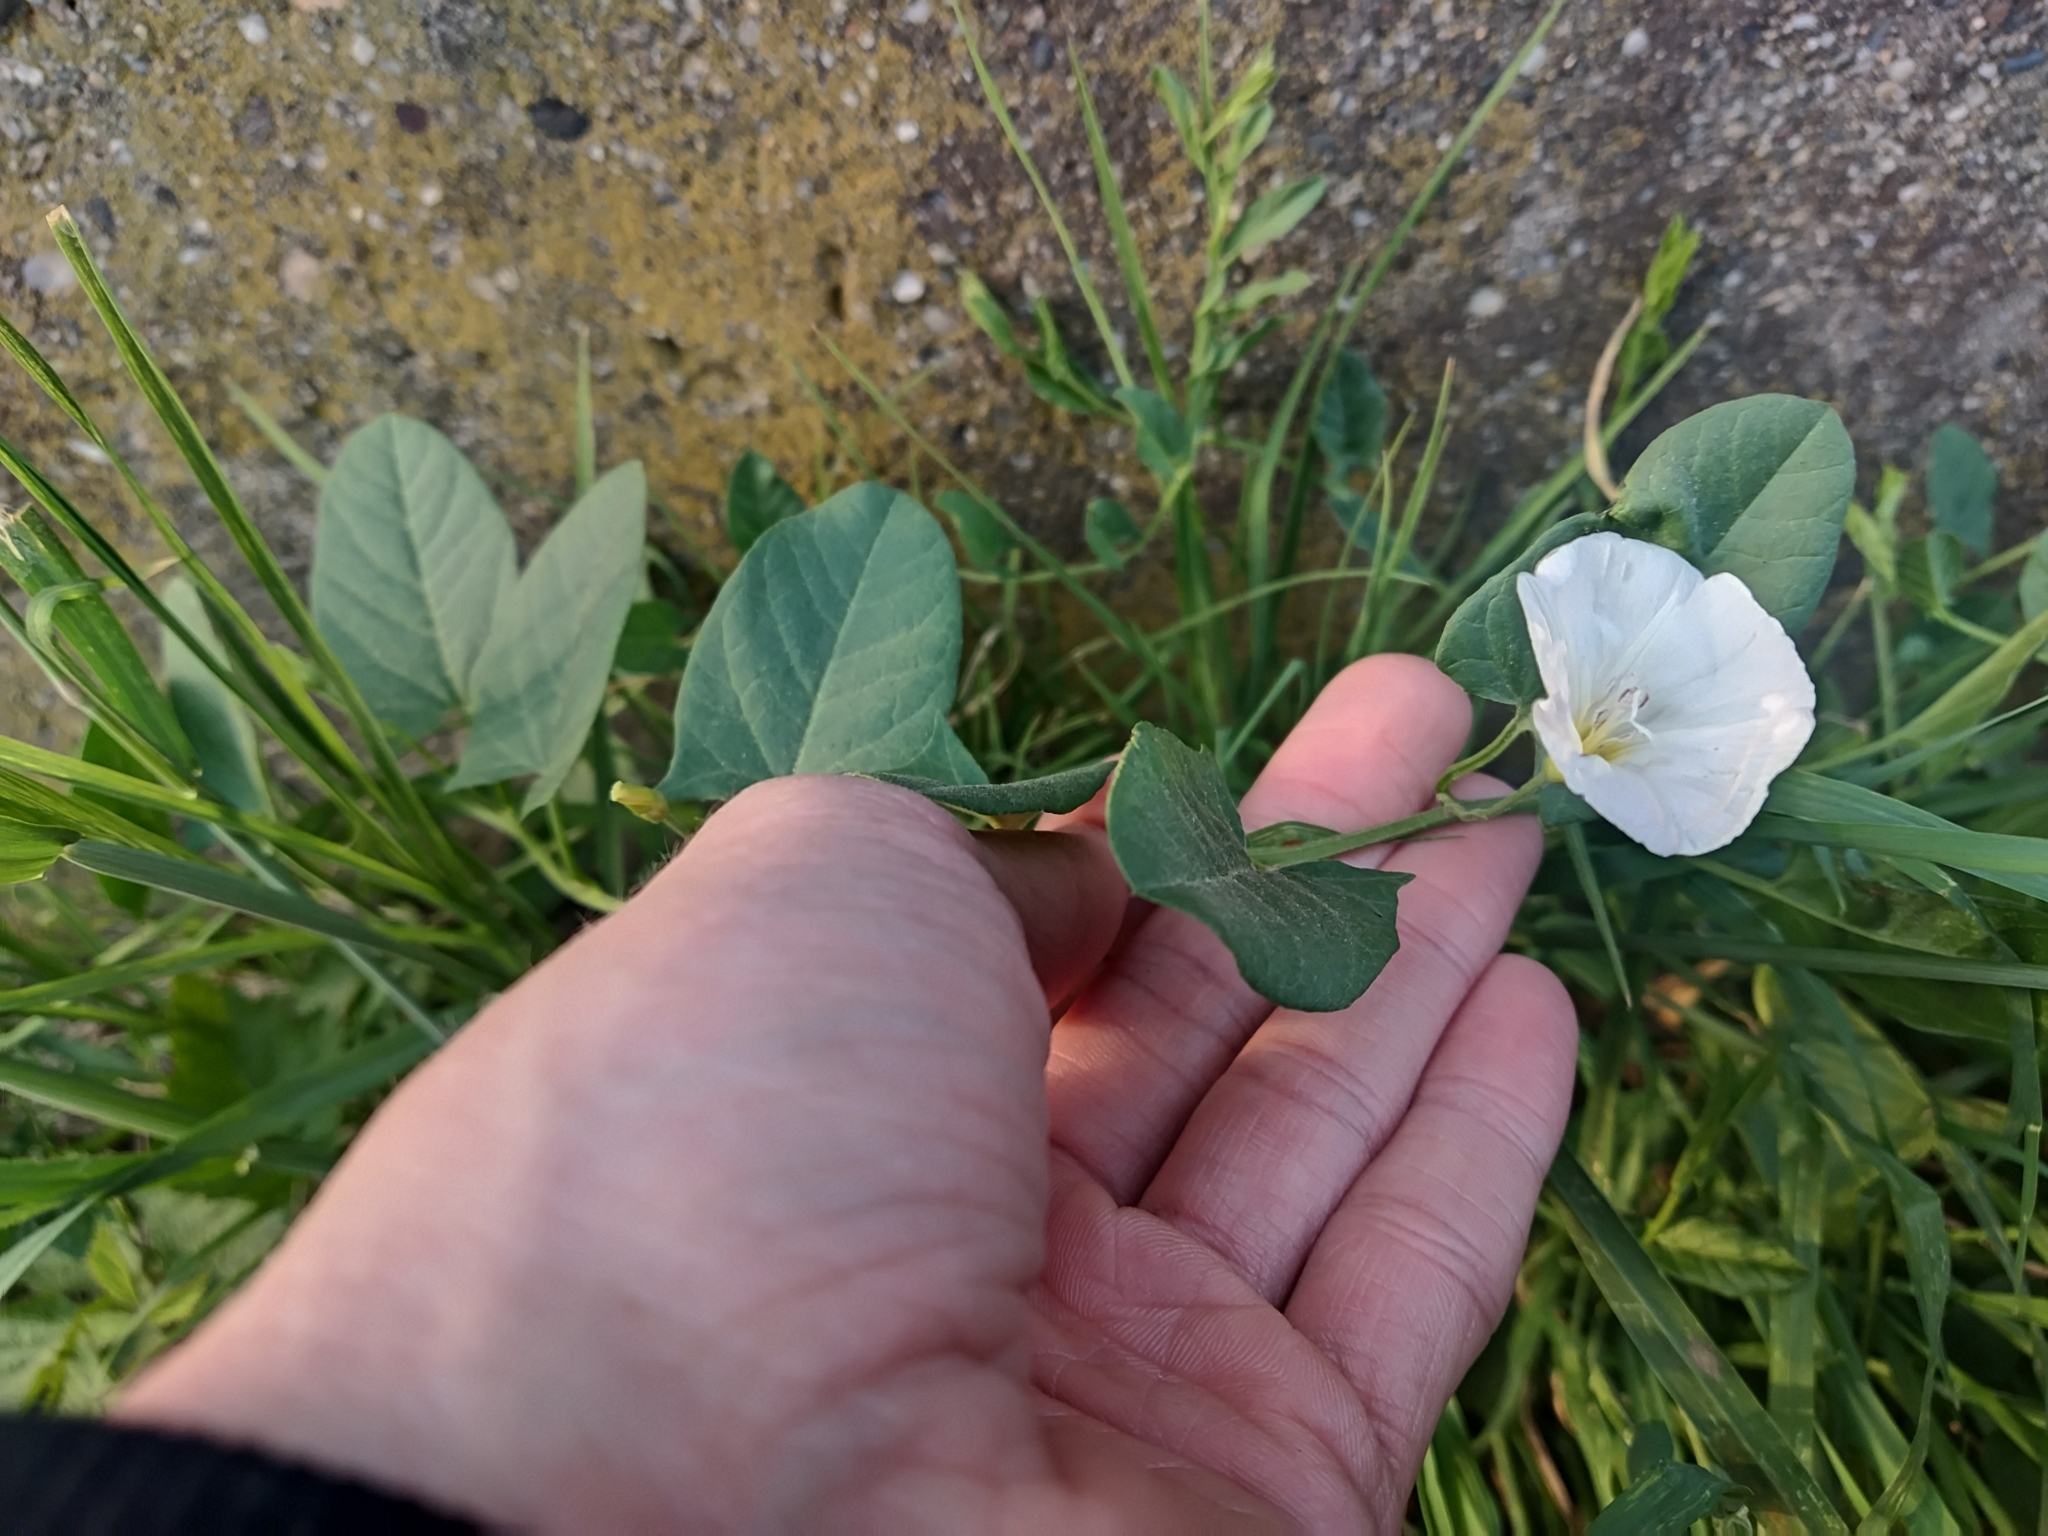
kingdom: Plantae
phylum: Tracheophyta
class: Magnoliopsida
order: Solanales
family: Convolvulaceae
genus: Convolvulus
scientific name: Convolvulus arvensis
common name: Field bindweed
